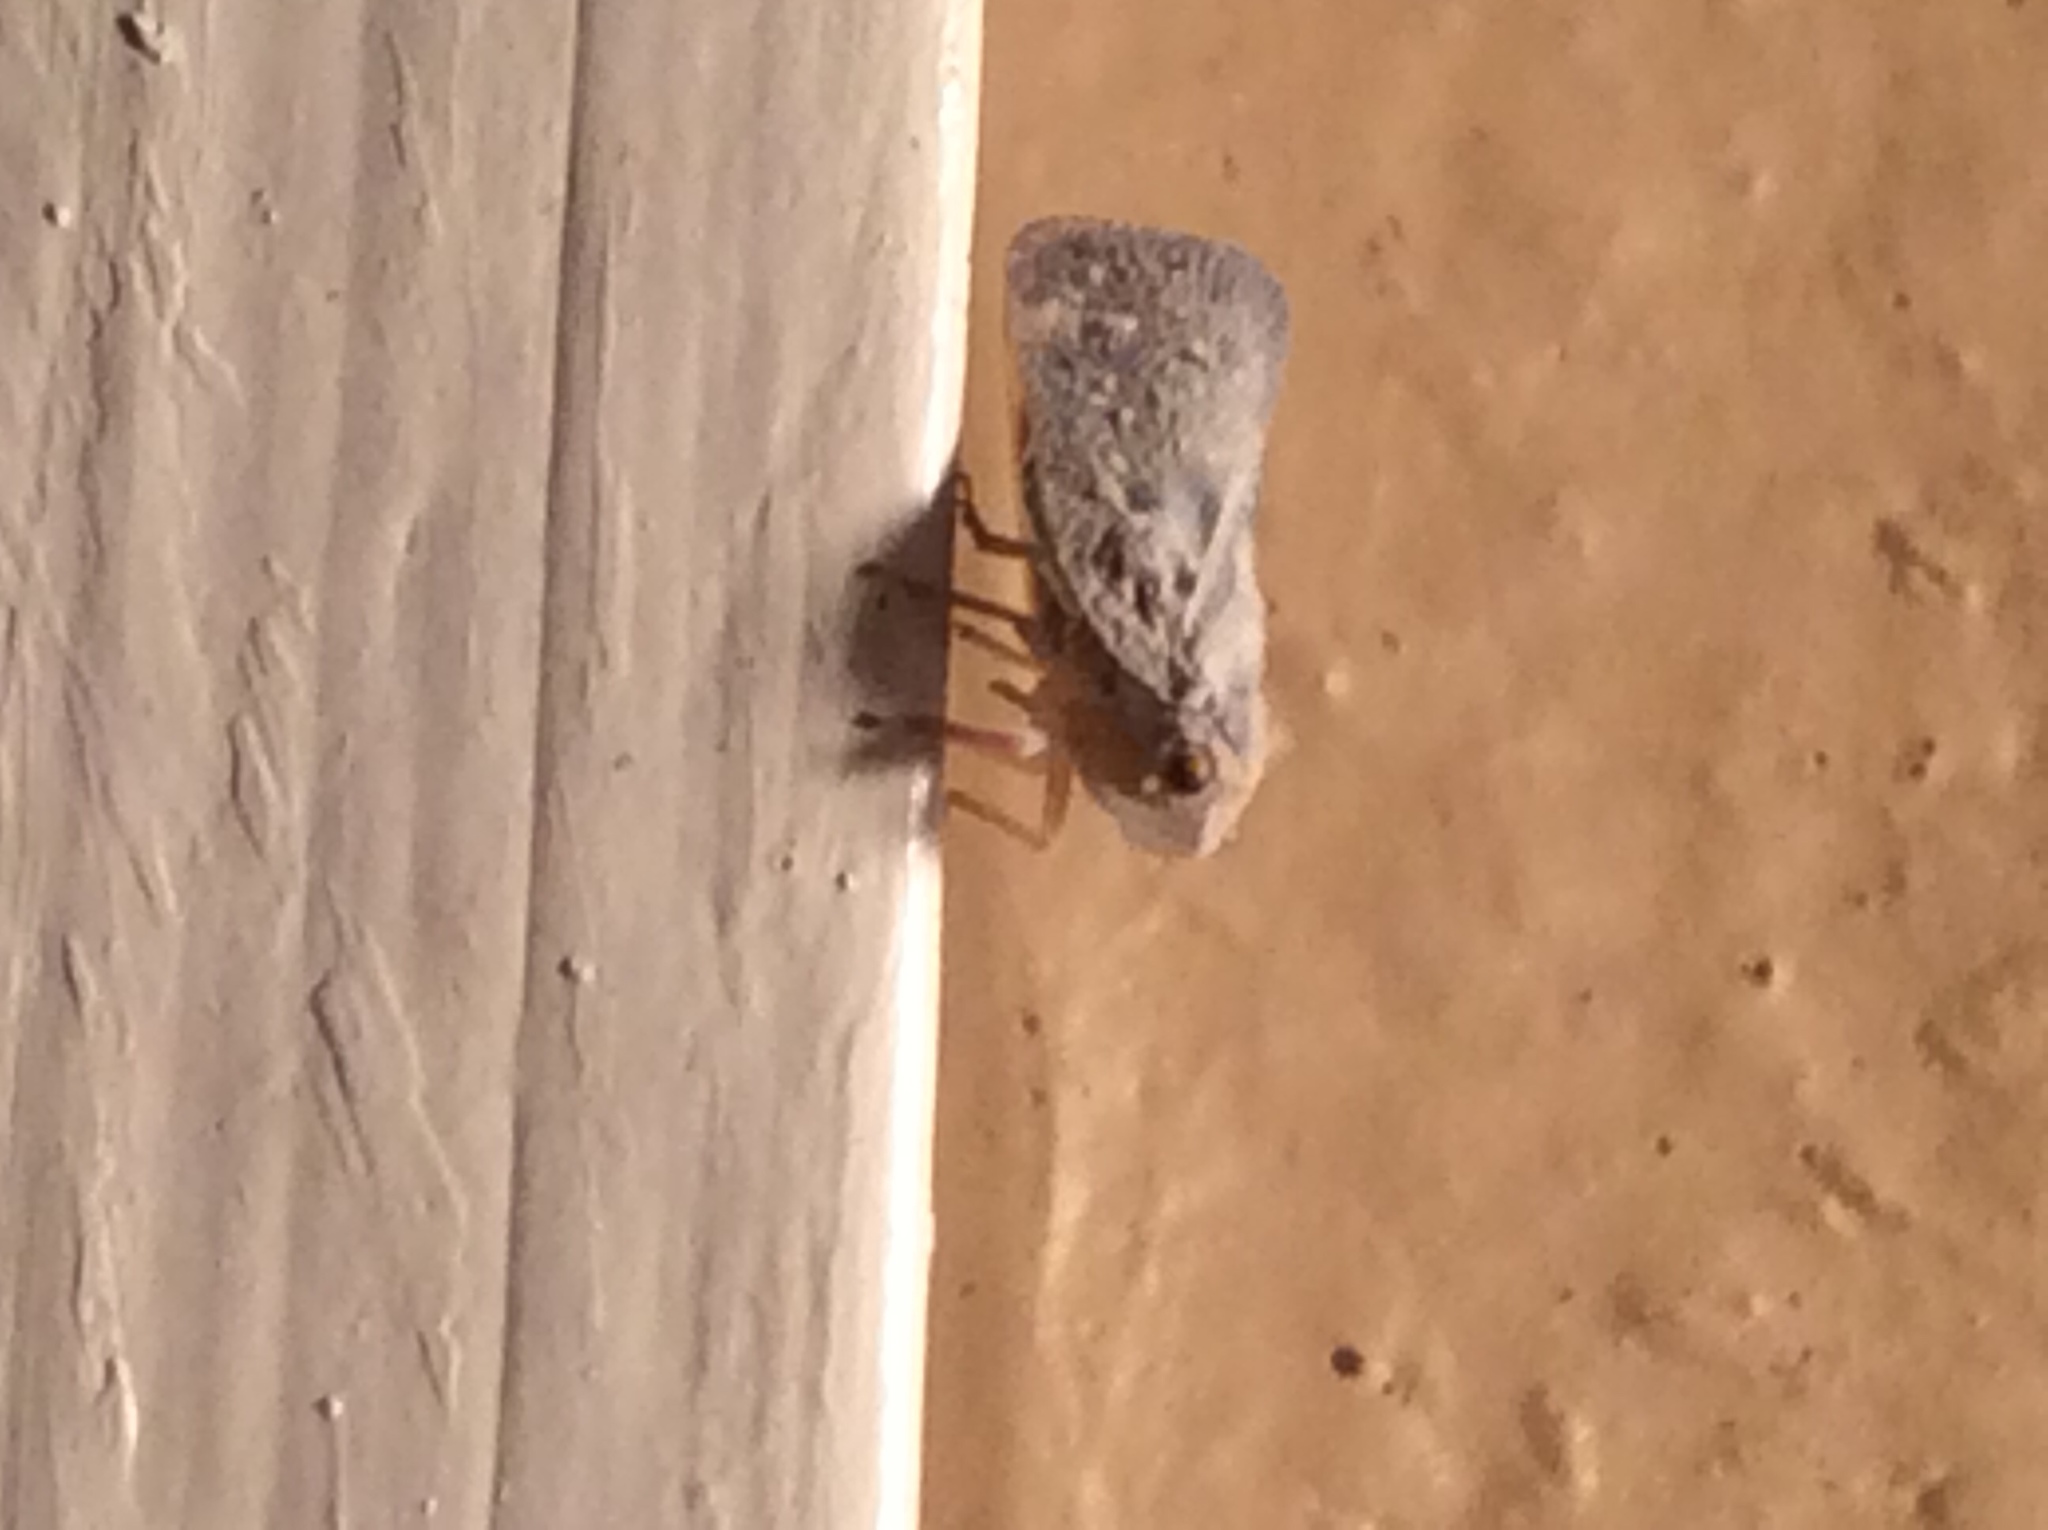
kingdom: Animalia
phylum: Arthropoda
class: Insecta
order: Hemiptera
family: Flatidae
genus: Metcalfa
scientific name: Metcalfa pruinosa
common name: Citrus flatid planthopper
